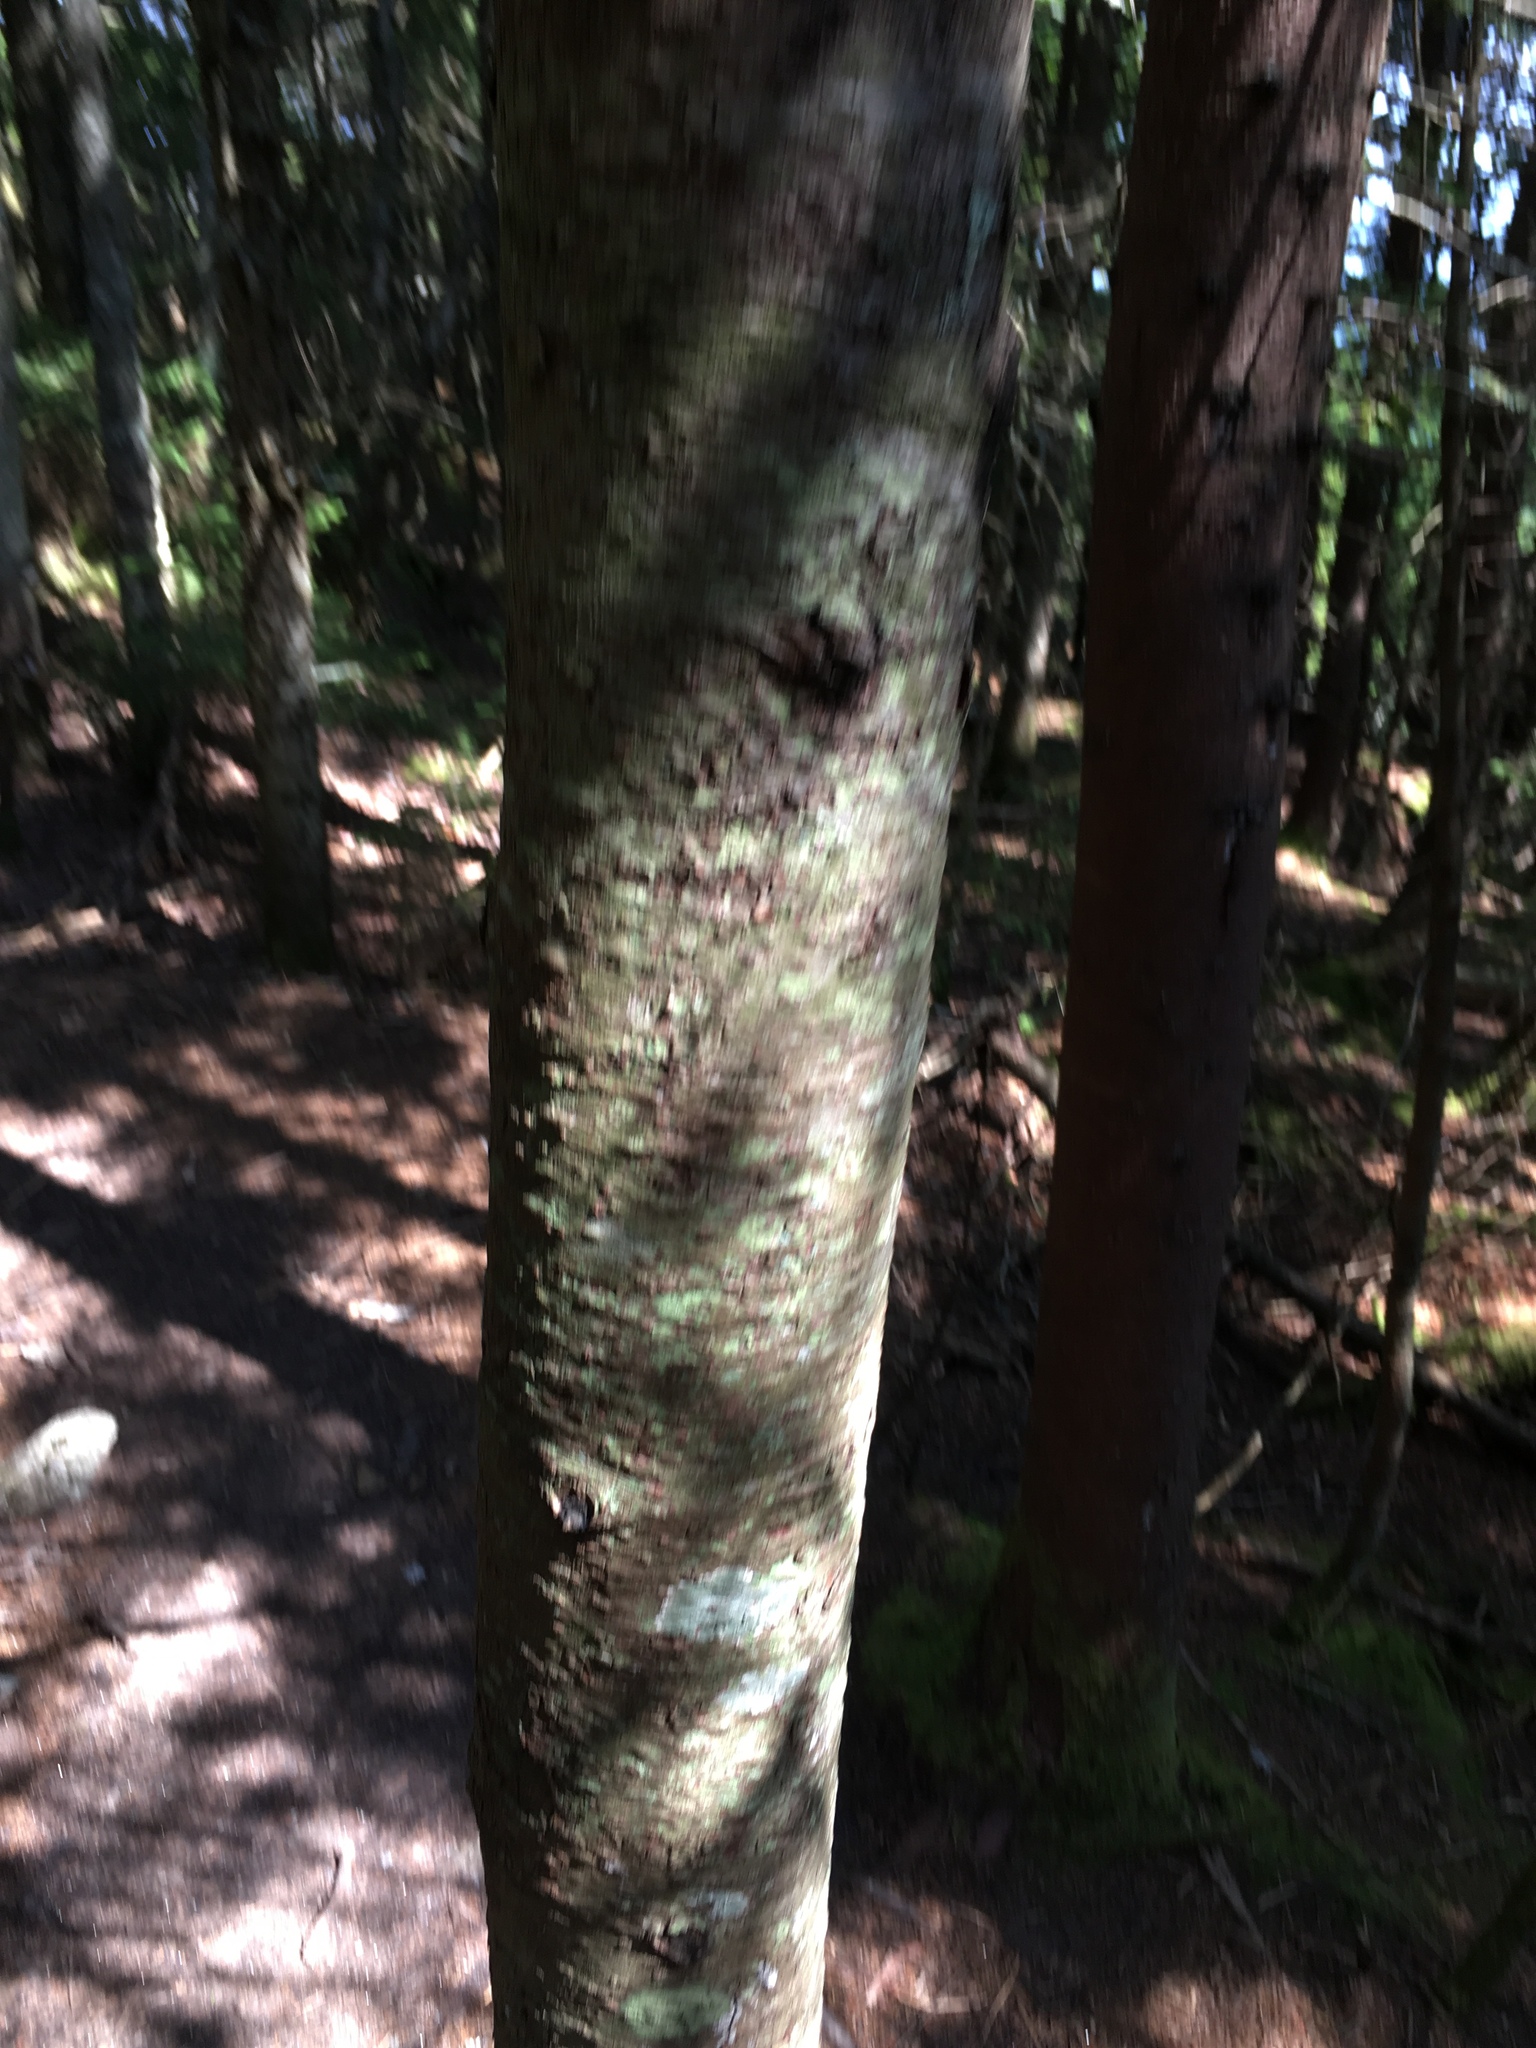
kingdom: Plantae
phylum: Tracheophyta
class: Pinopsida
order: Pinales
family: Pinaceae
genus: Abies
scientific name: Abies balsamea
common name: Balsam fir
